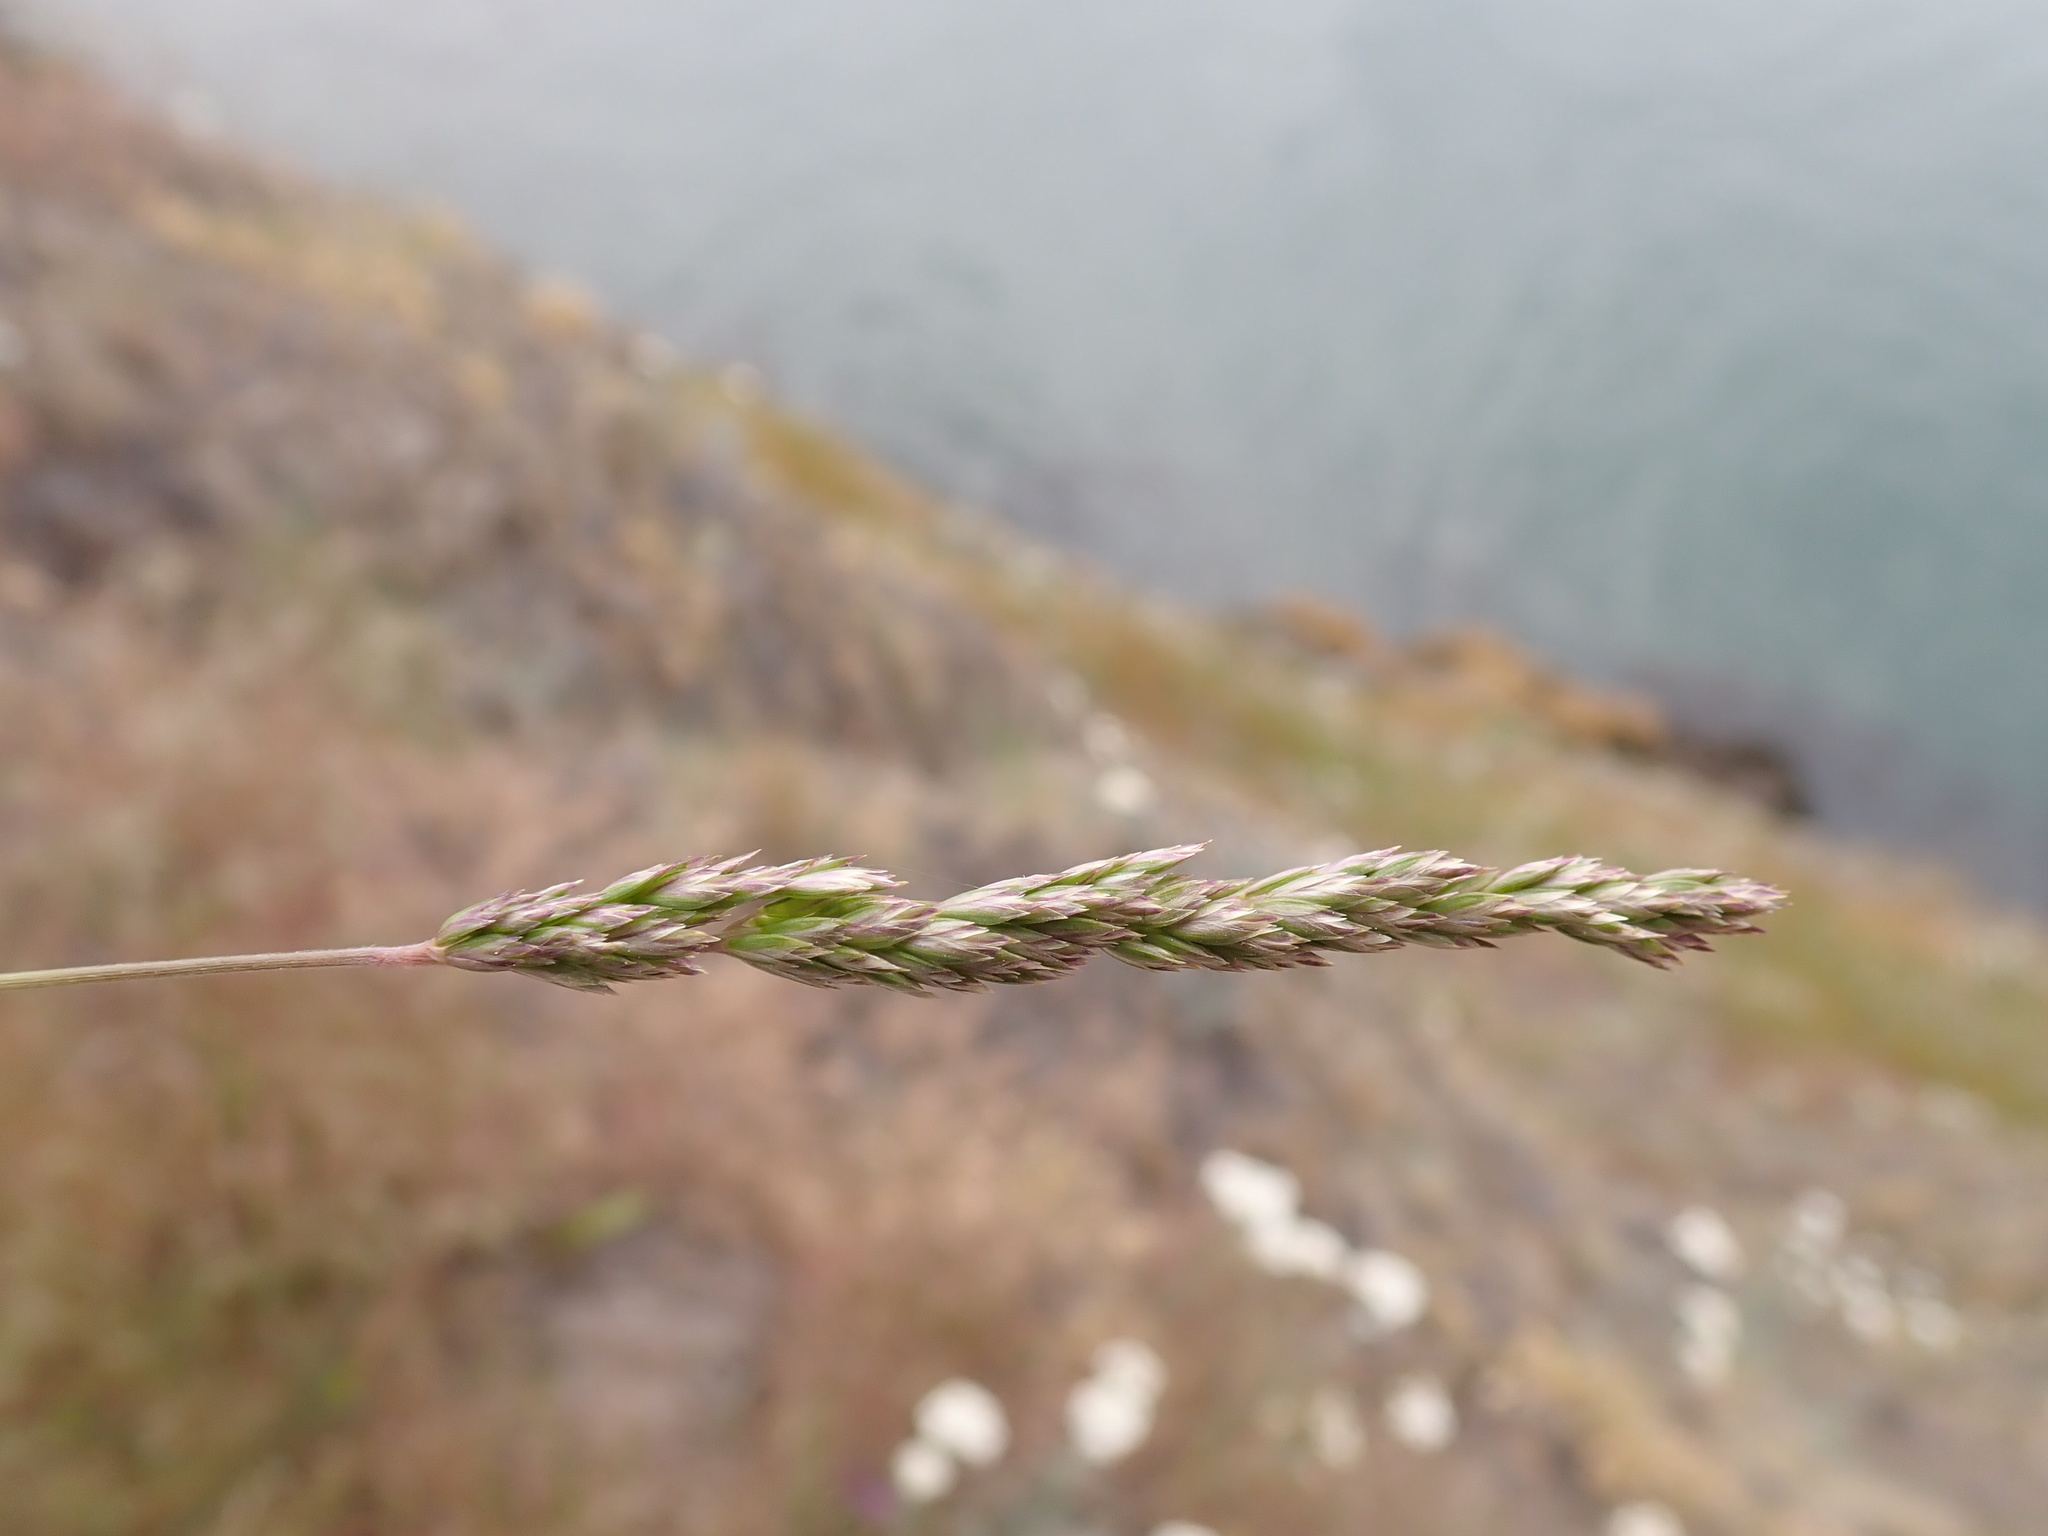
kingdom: Plantae
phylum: Tracheophyta
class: Liliopsida
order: Poales
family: Poaceae
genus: Koeleria
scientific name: Koeleria macrantha
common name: Crested hair-grass
